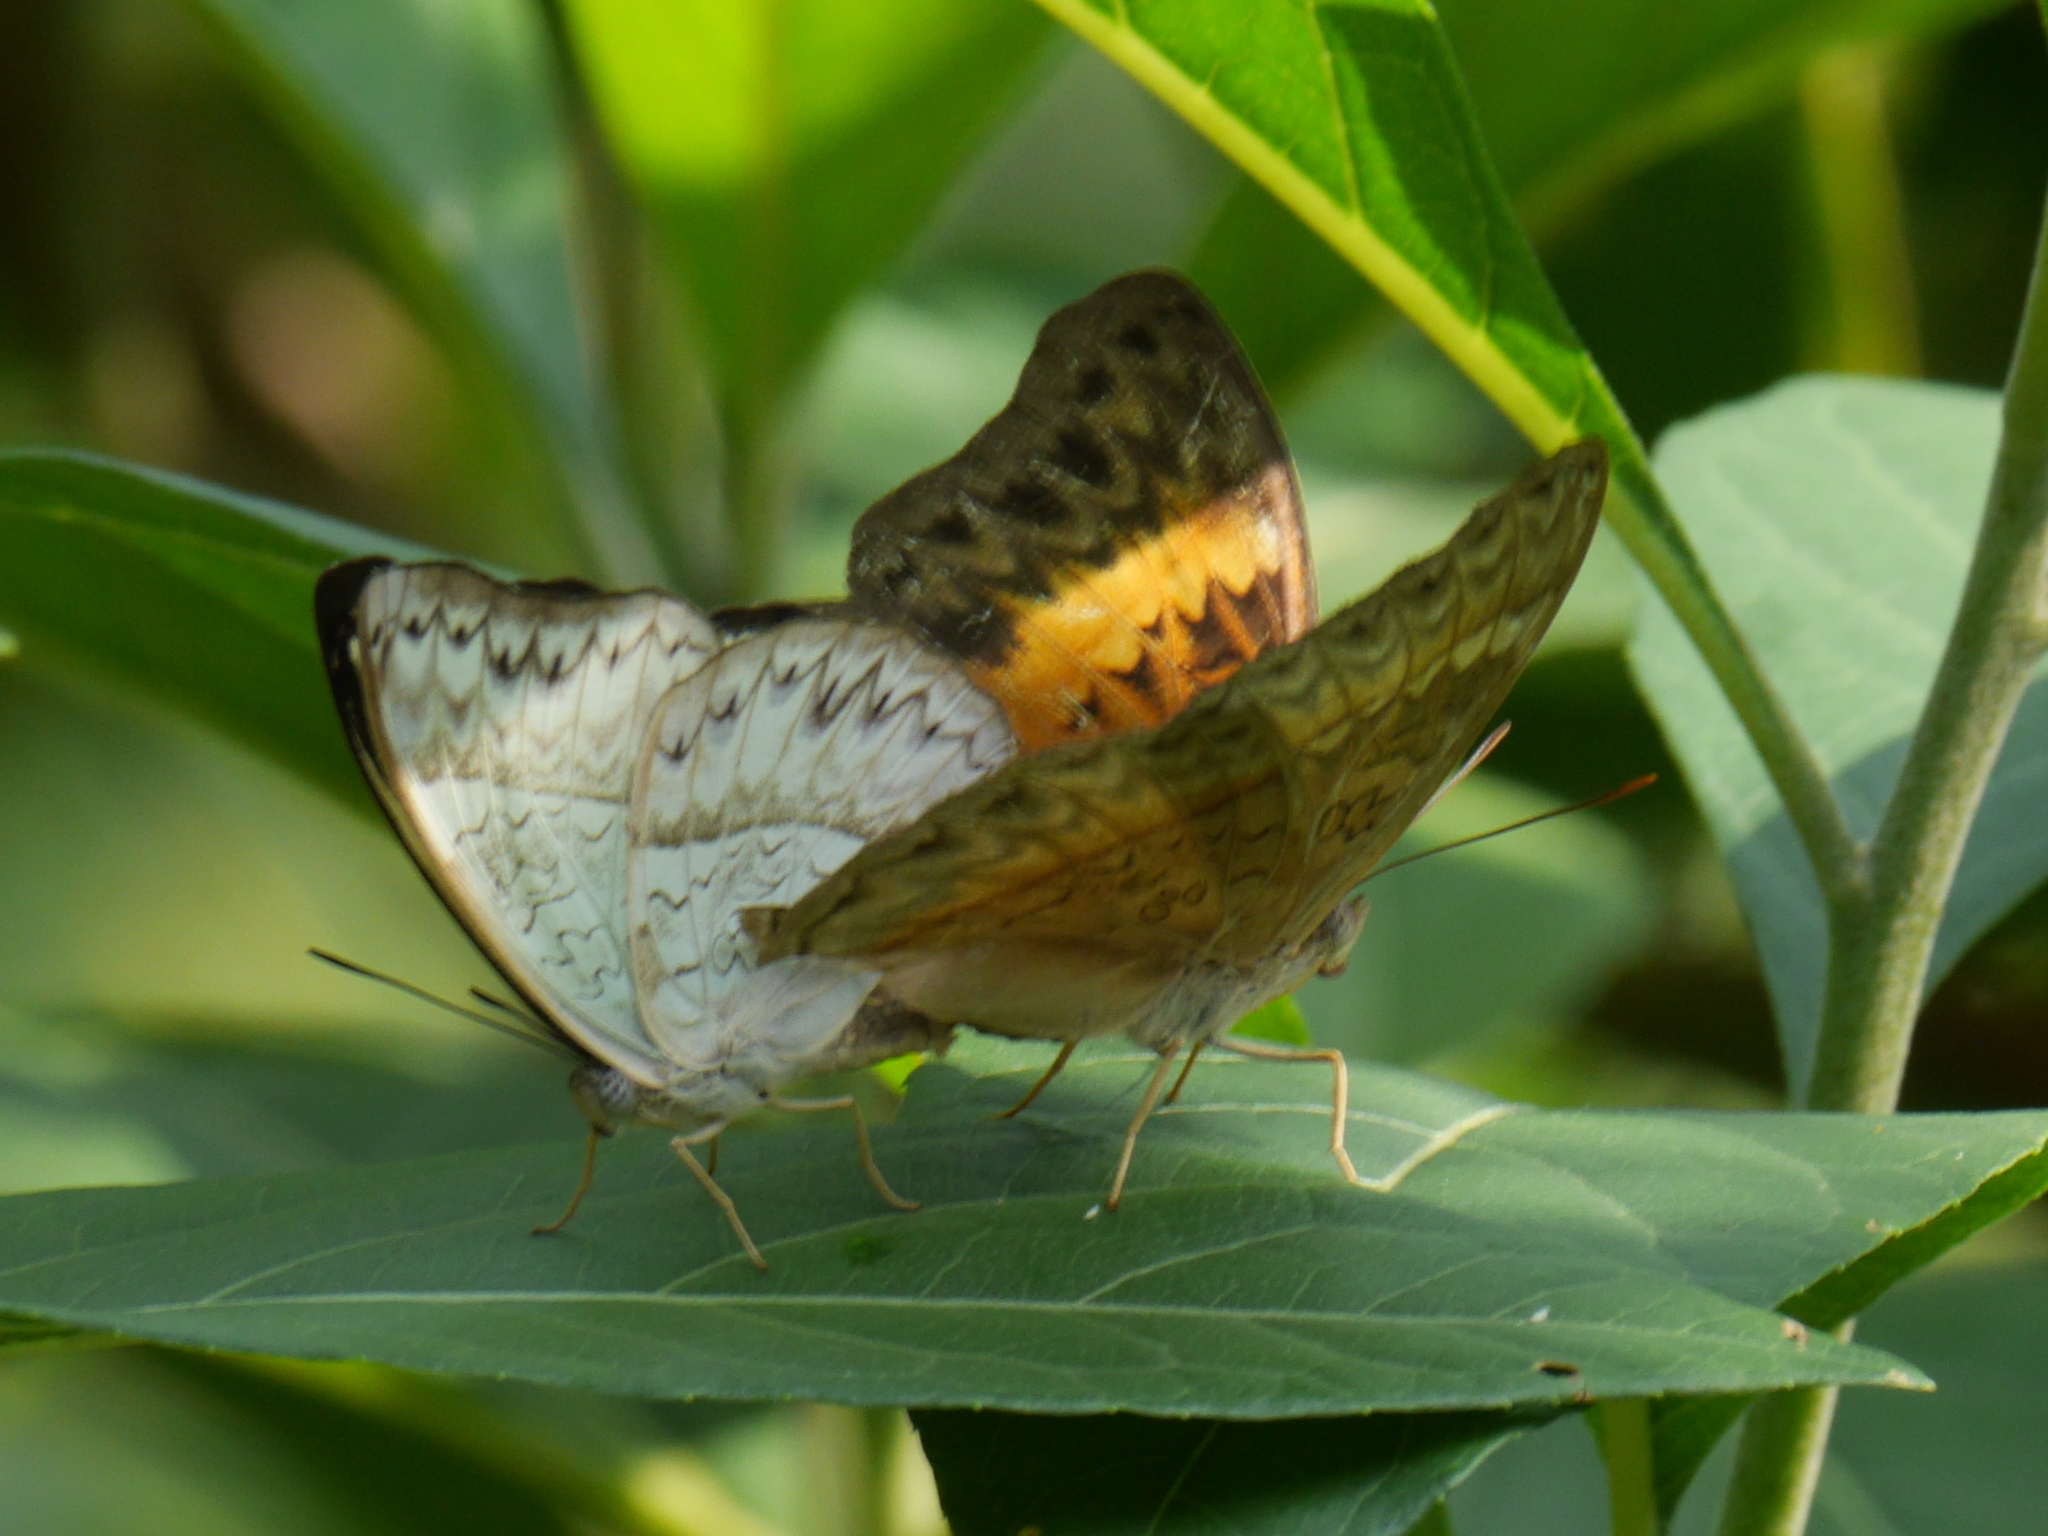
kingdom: Animalia
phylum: Arthropoda
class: Insecta
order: Lepidoptera
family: Nymphalidae
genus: Cymothoe
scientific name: Cymothoe caenis
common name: Common glider
